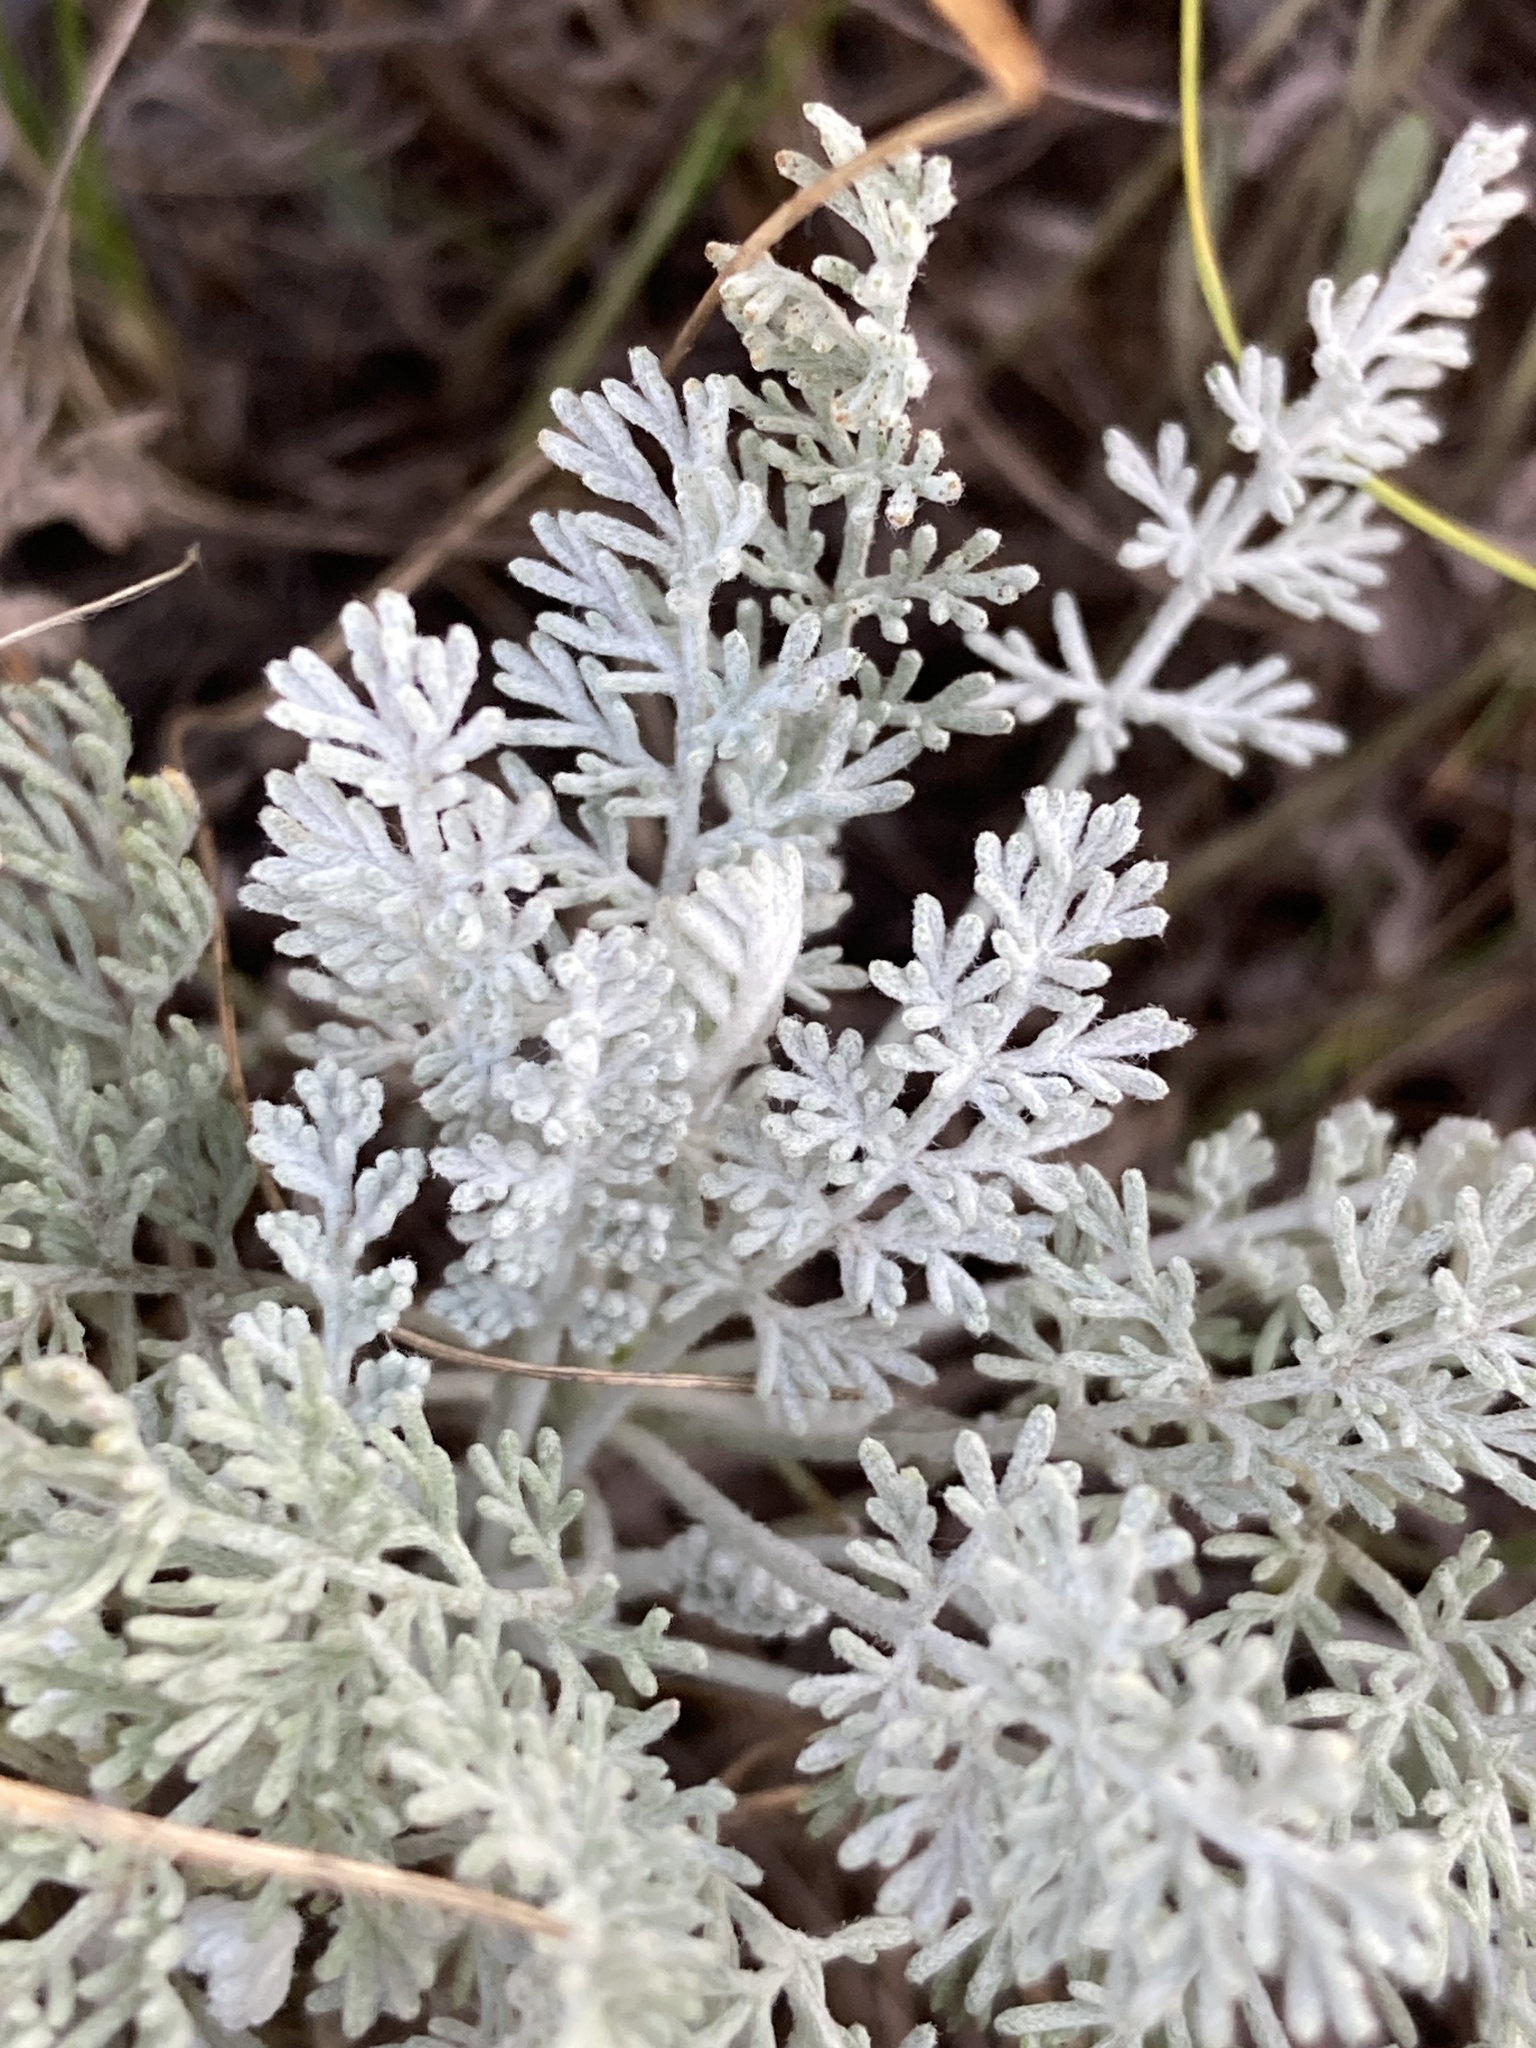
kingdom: Plantae
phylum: Tracheophyta
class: Magnoliopsida
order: Asterales
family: Asteraceae
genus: Artemisia
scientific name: Artemisia santonicum
